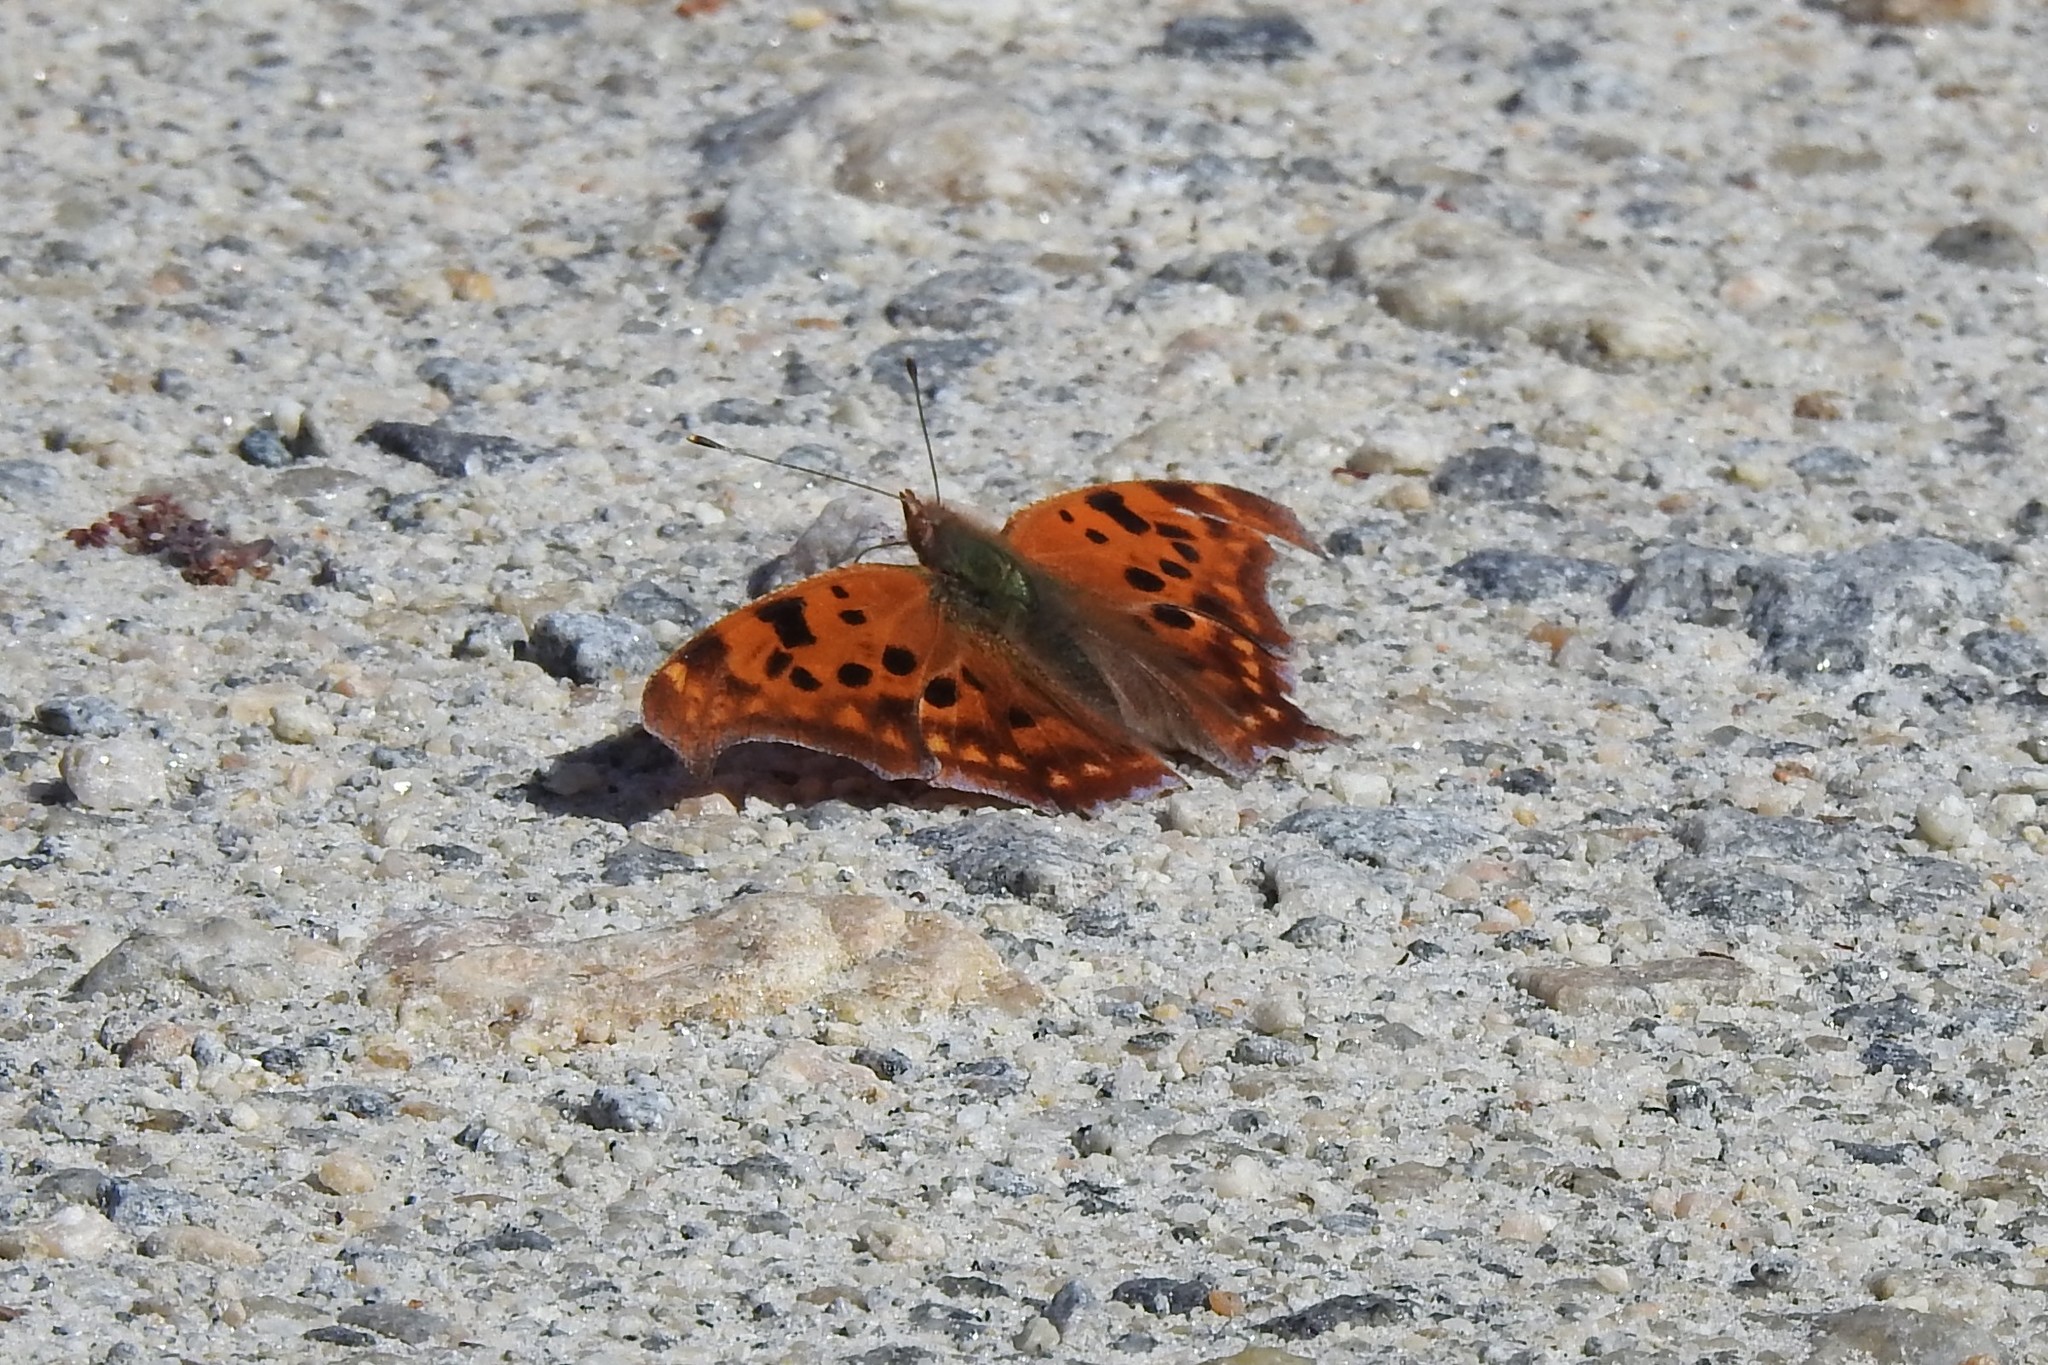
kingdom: Animalia
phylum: Arthropoda
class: Insecta
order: Lepidoptera
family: Nymphalidae
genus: Polygonia
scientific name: Polygonia interrogationis
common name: Question mark
